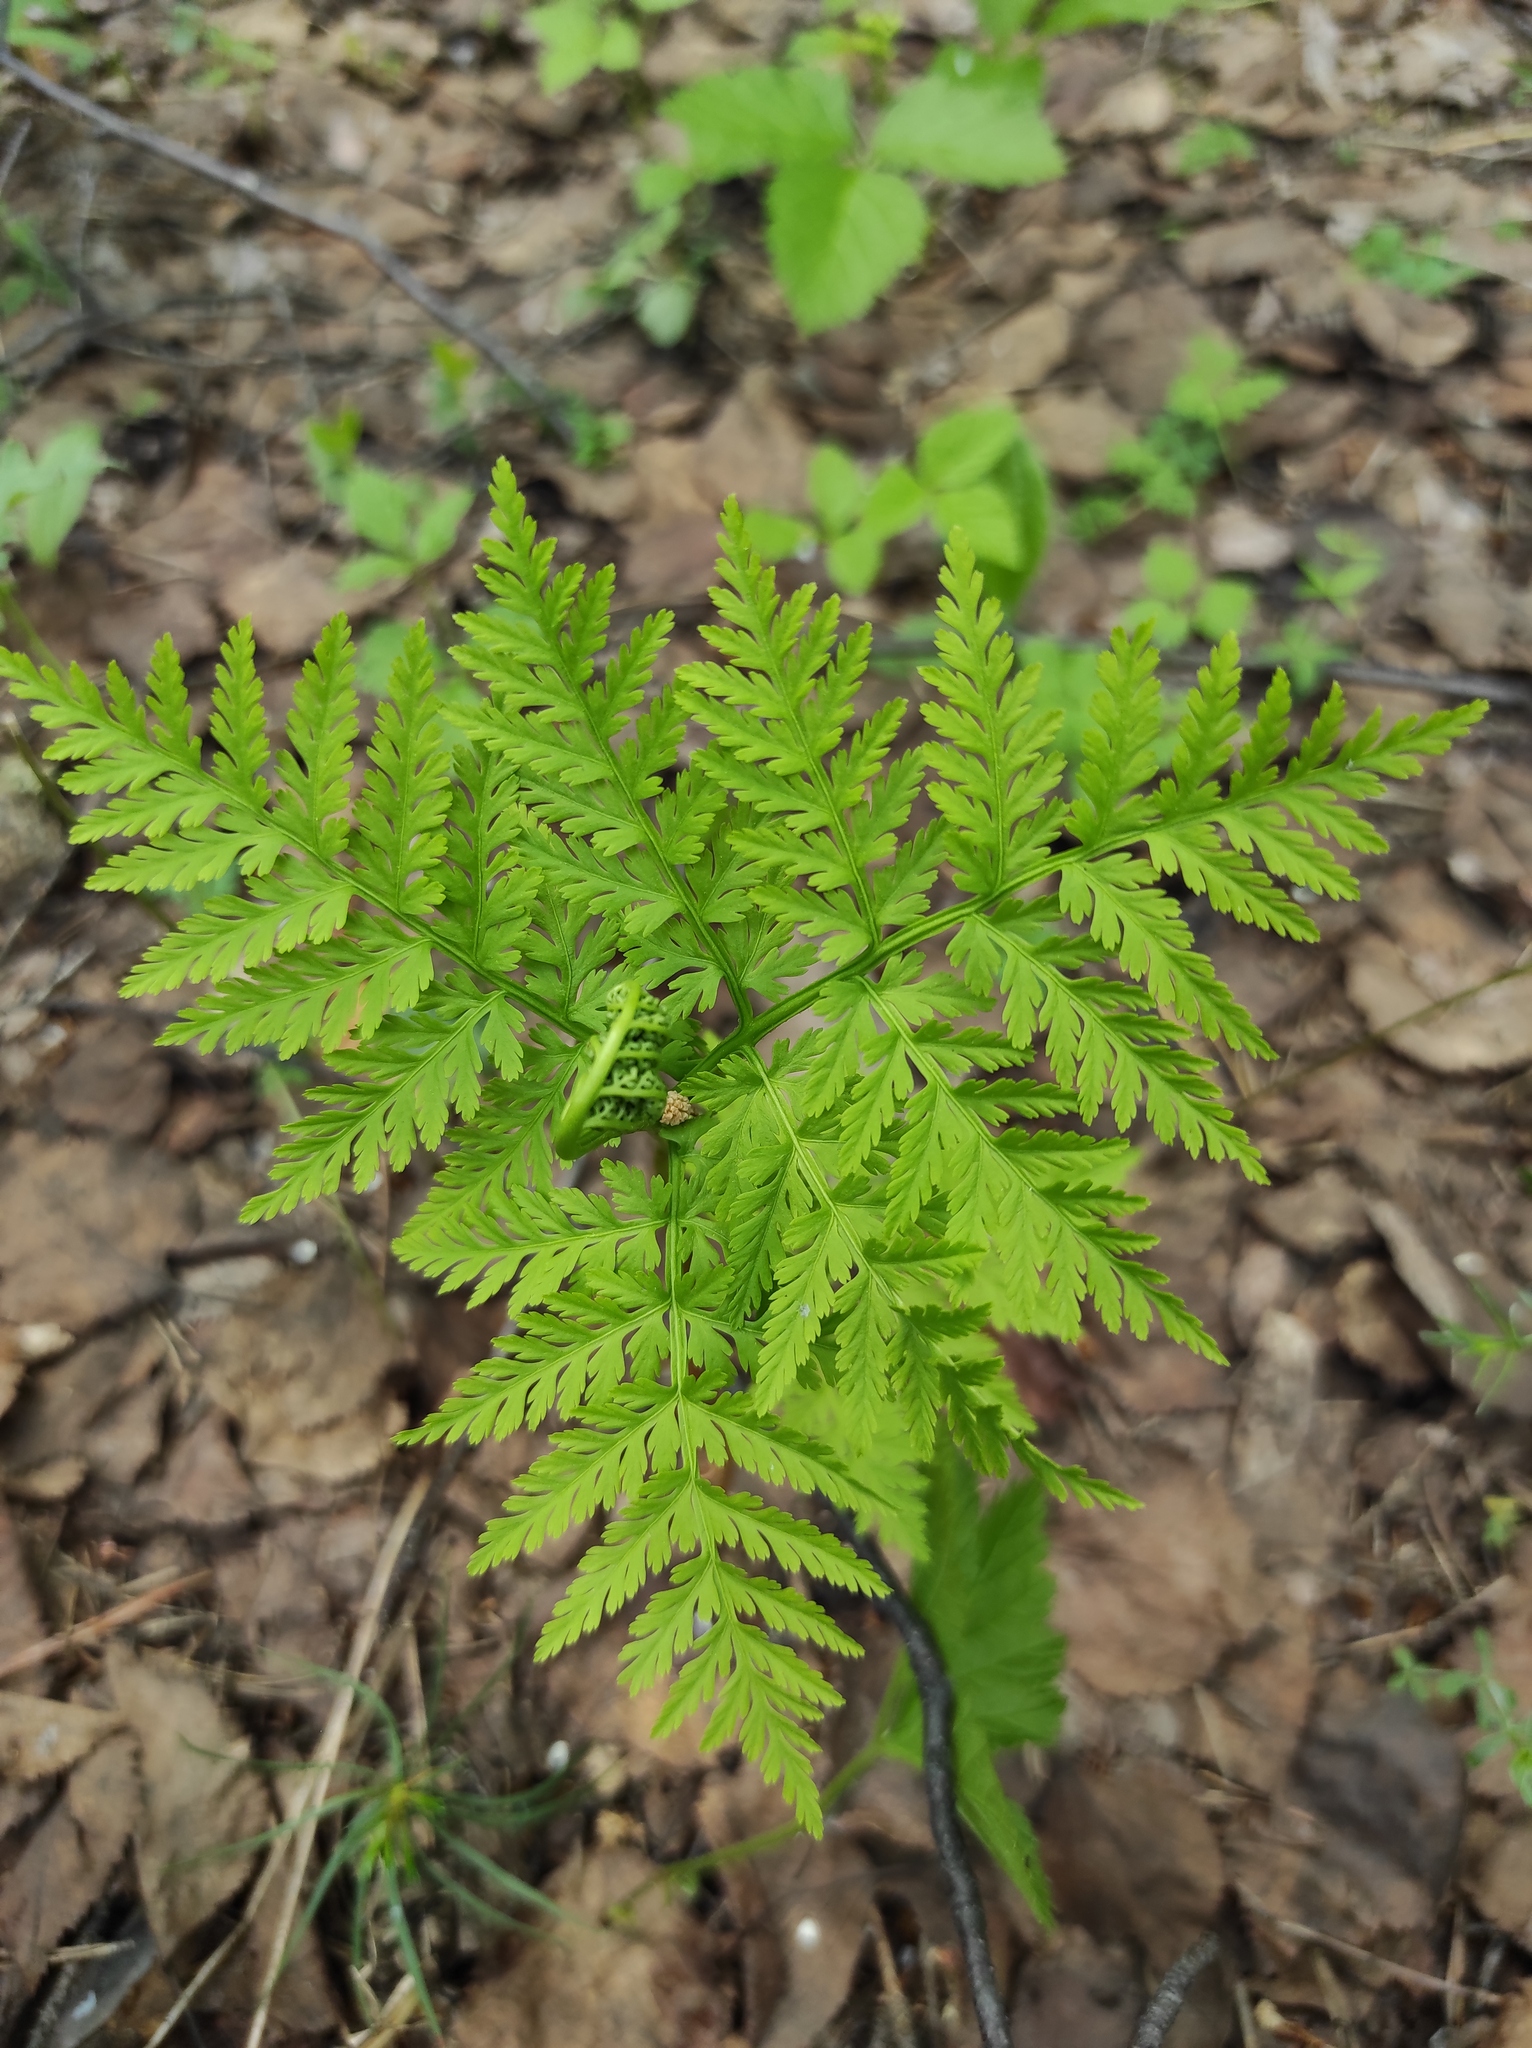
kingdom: Plantae
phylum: Tracheophyta
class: Polypodiopsida
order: Ophioglossales
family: Ophioglossaceae
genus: Botrypus
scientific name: Botrypus virginianus
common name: Common grapefern
